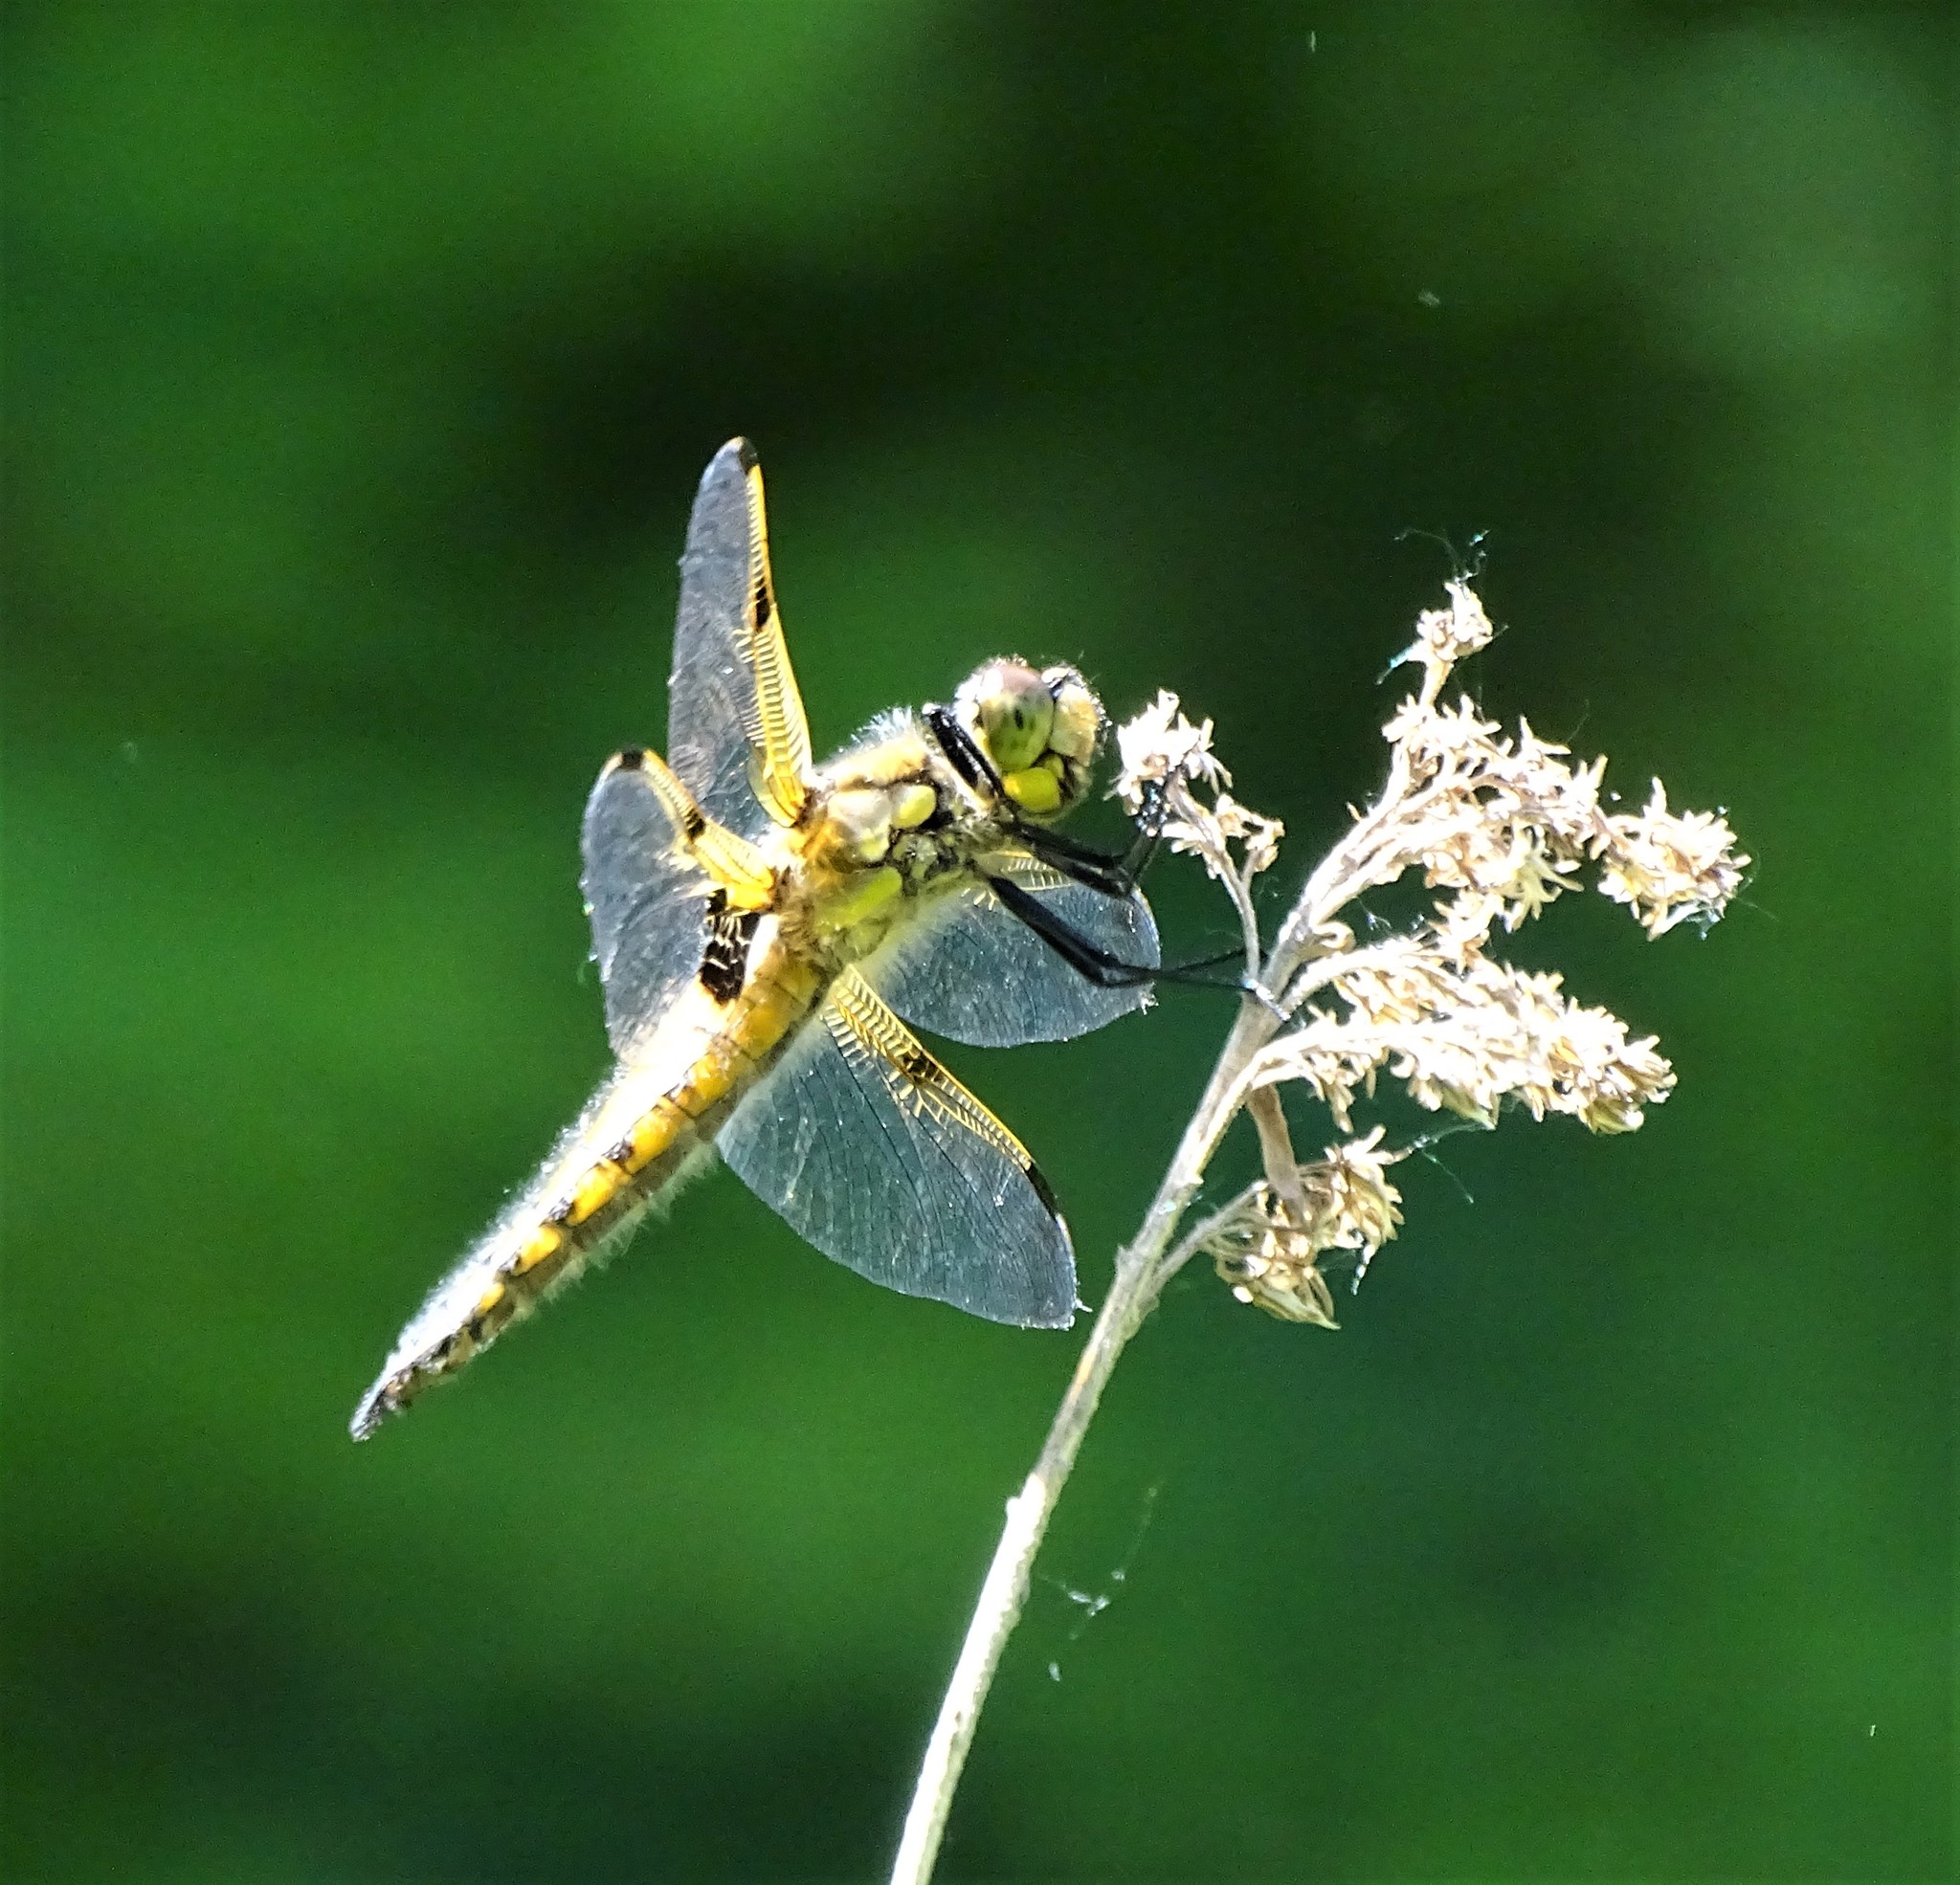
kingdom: Animalia
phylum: Arthropoda
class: Insecta
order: Odonata
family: Libellulidae
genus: Libellula
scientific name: Libellula quadrimaculata
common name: Four-spotted chaser
